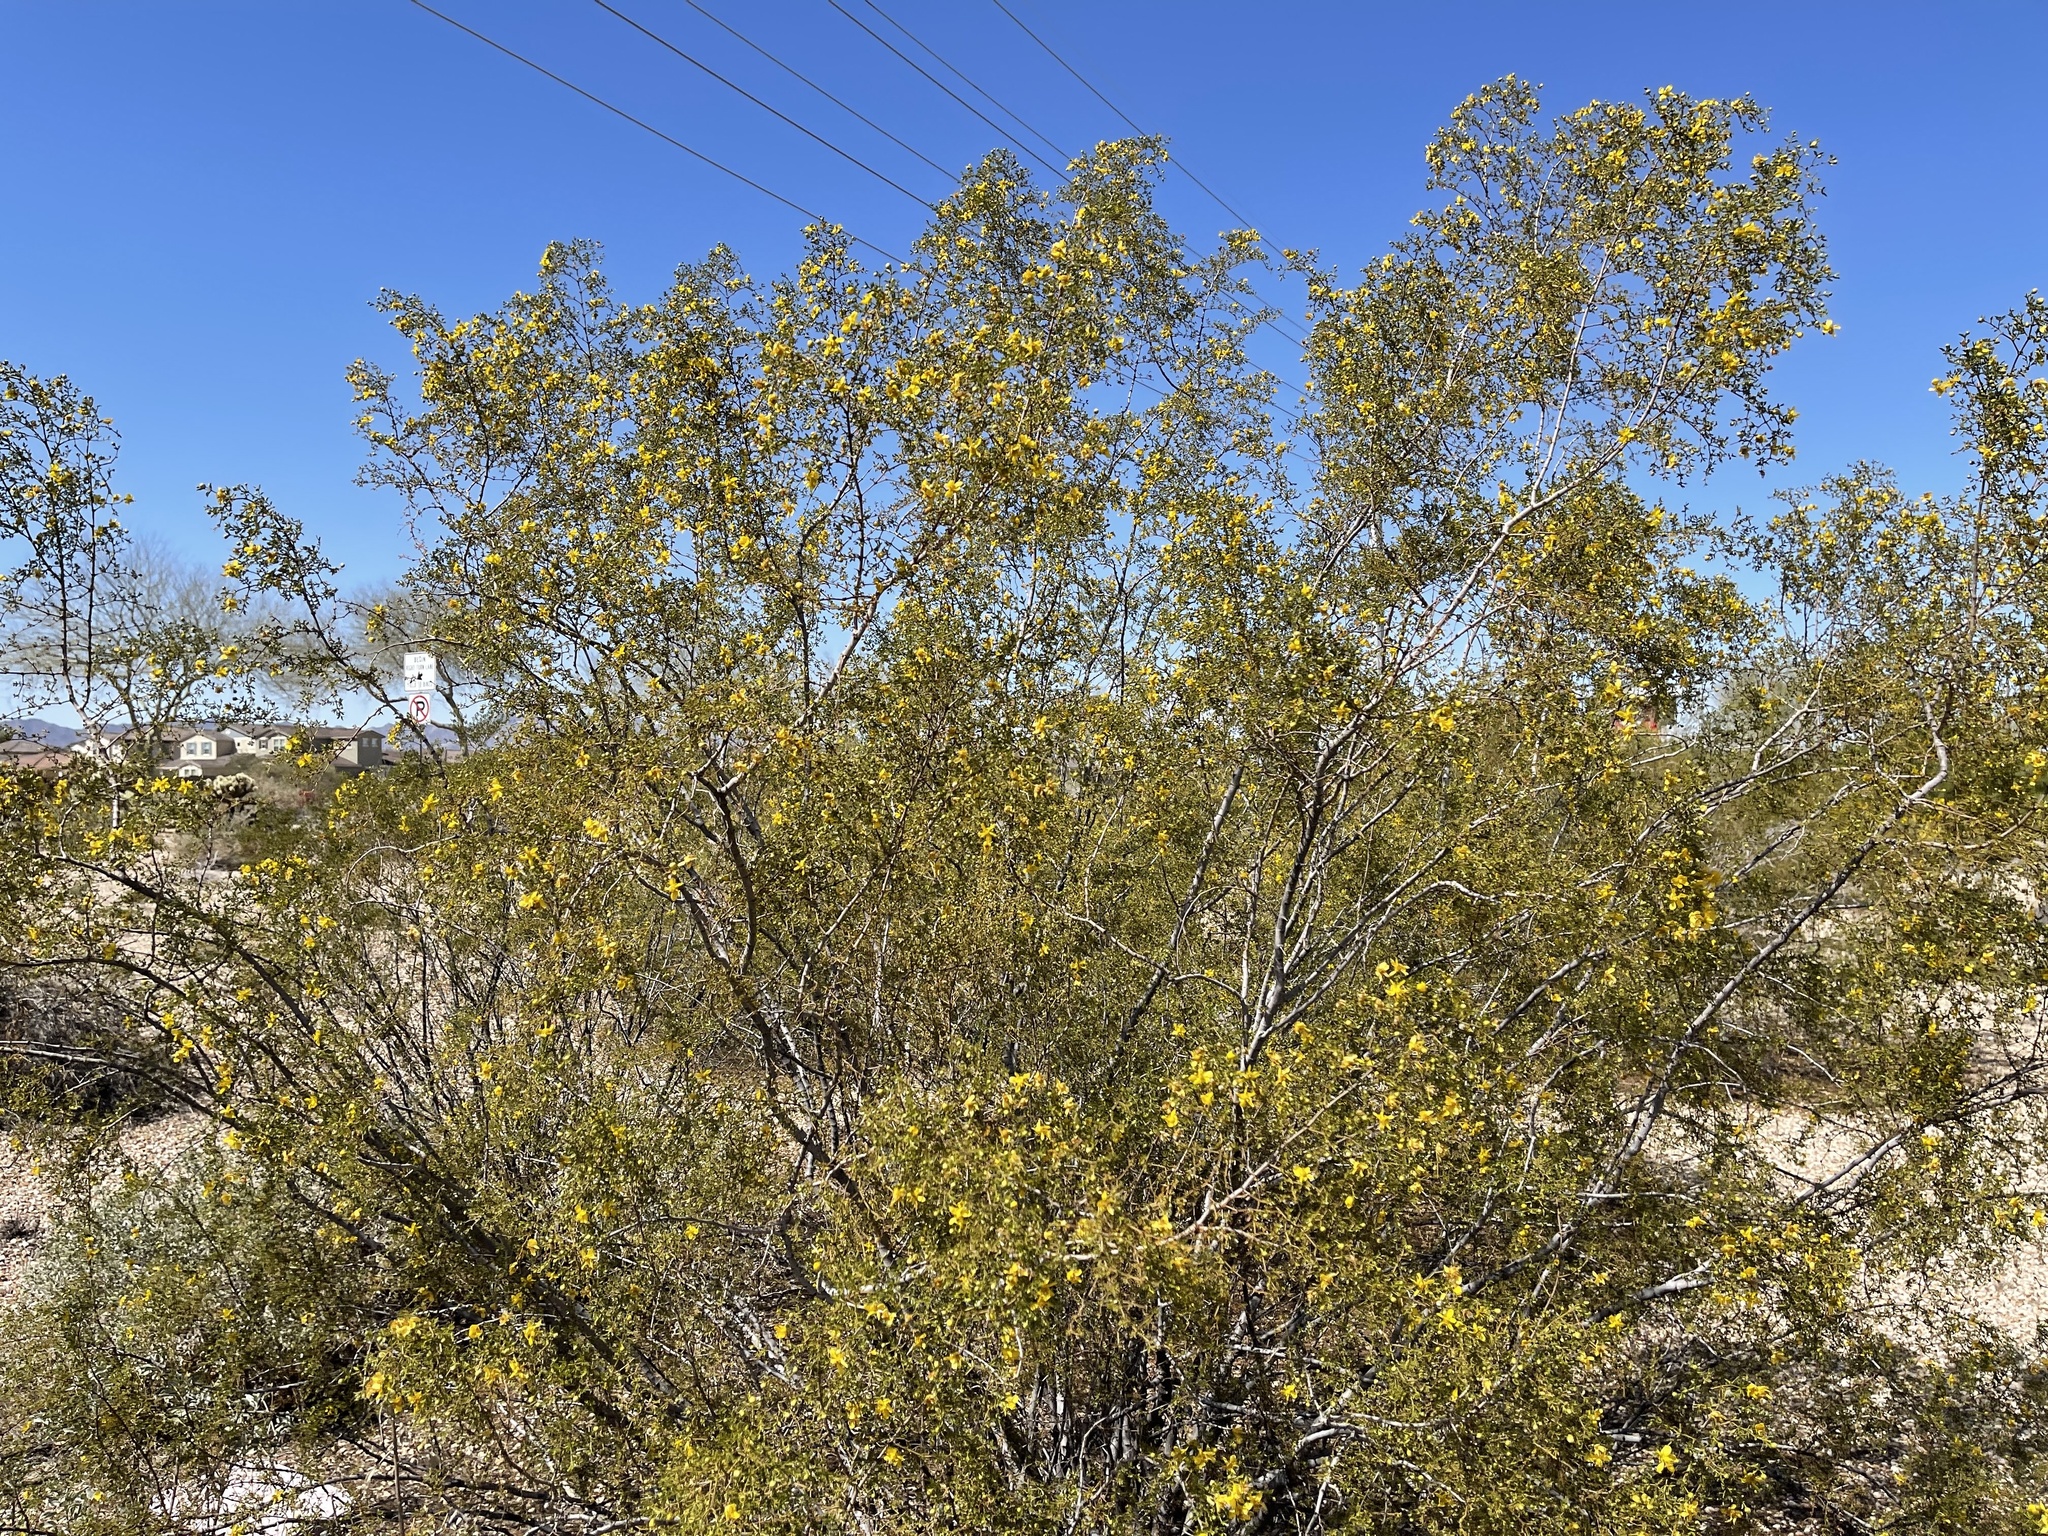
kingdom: Plantae
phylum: Tracheophyta
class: Magnoliopsida
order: Zygophyllales
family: Zygophyllaceae
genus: Larrea
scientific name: Larrea tridentata
